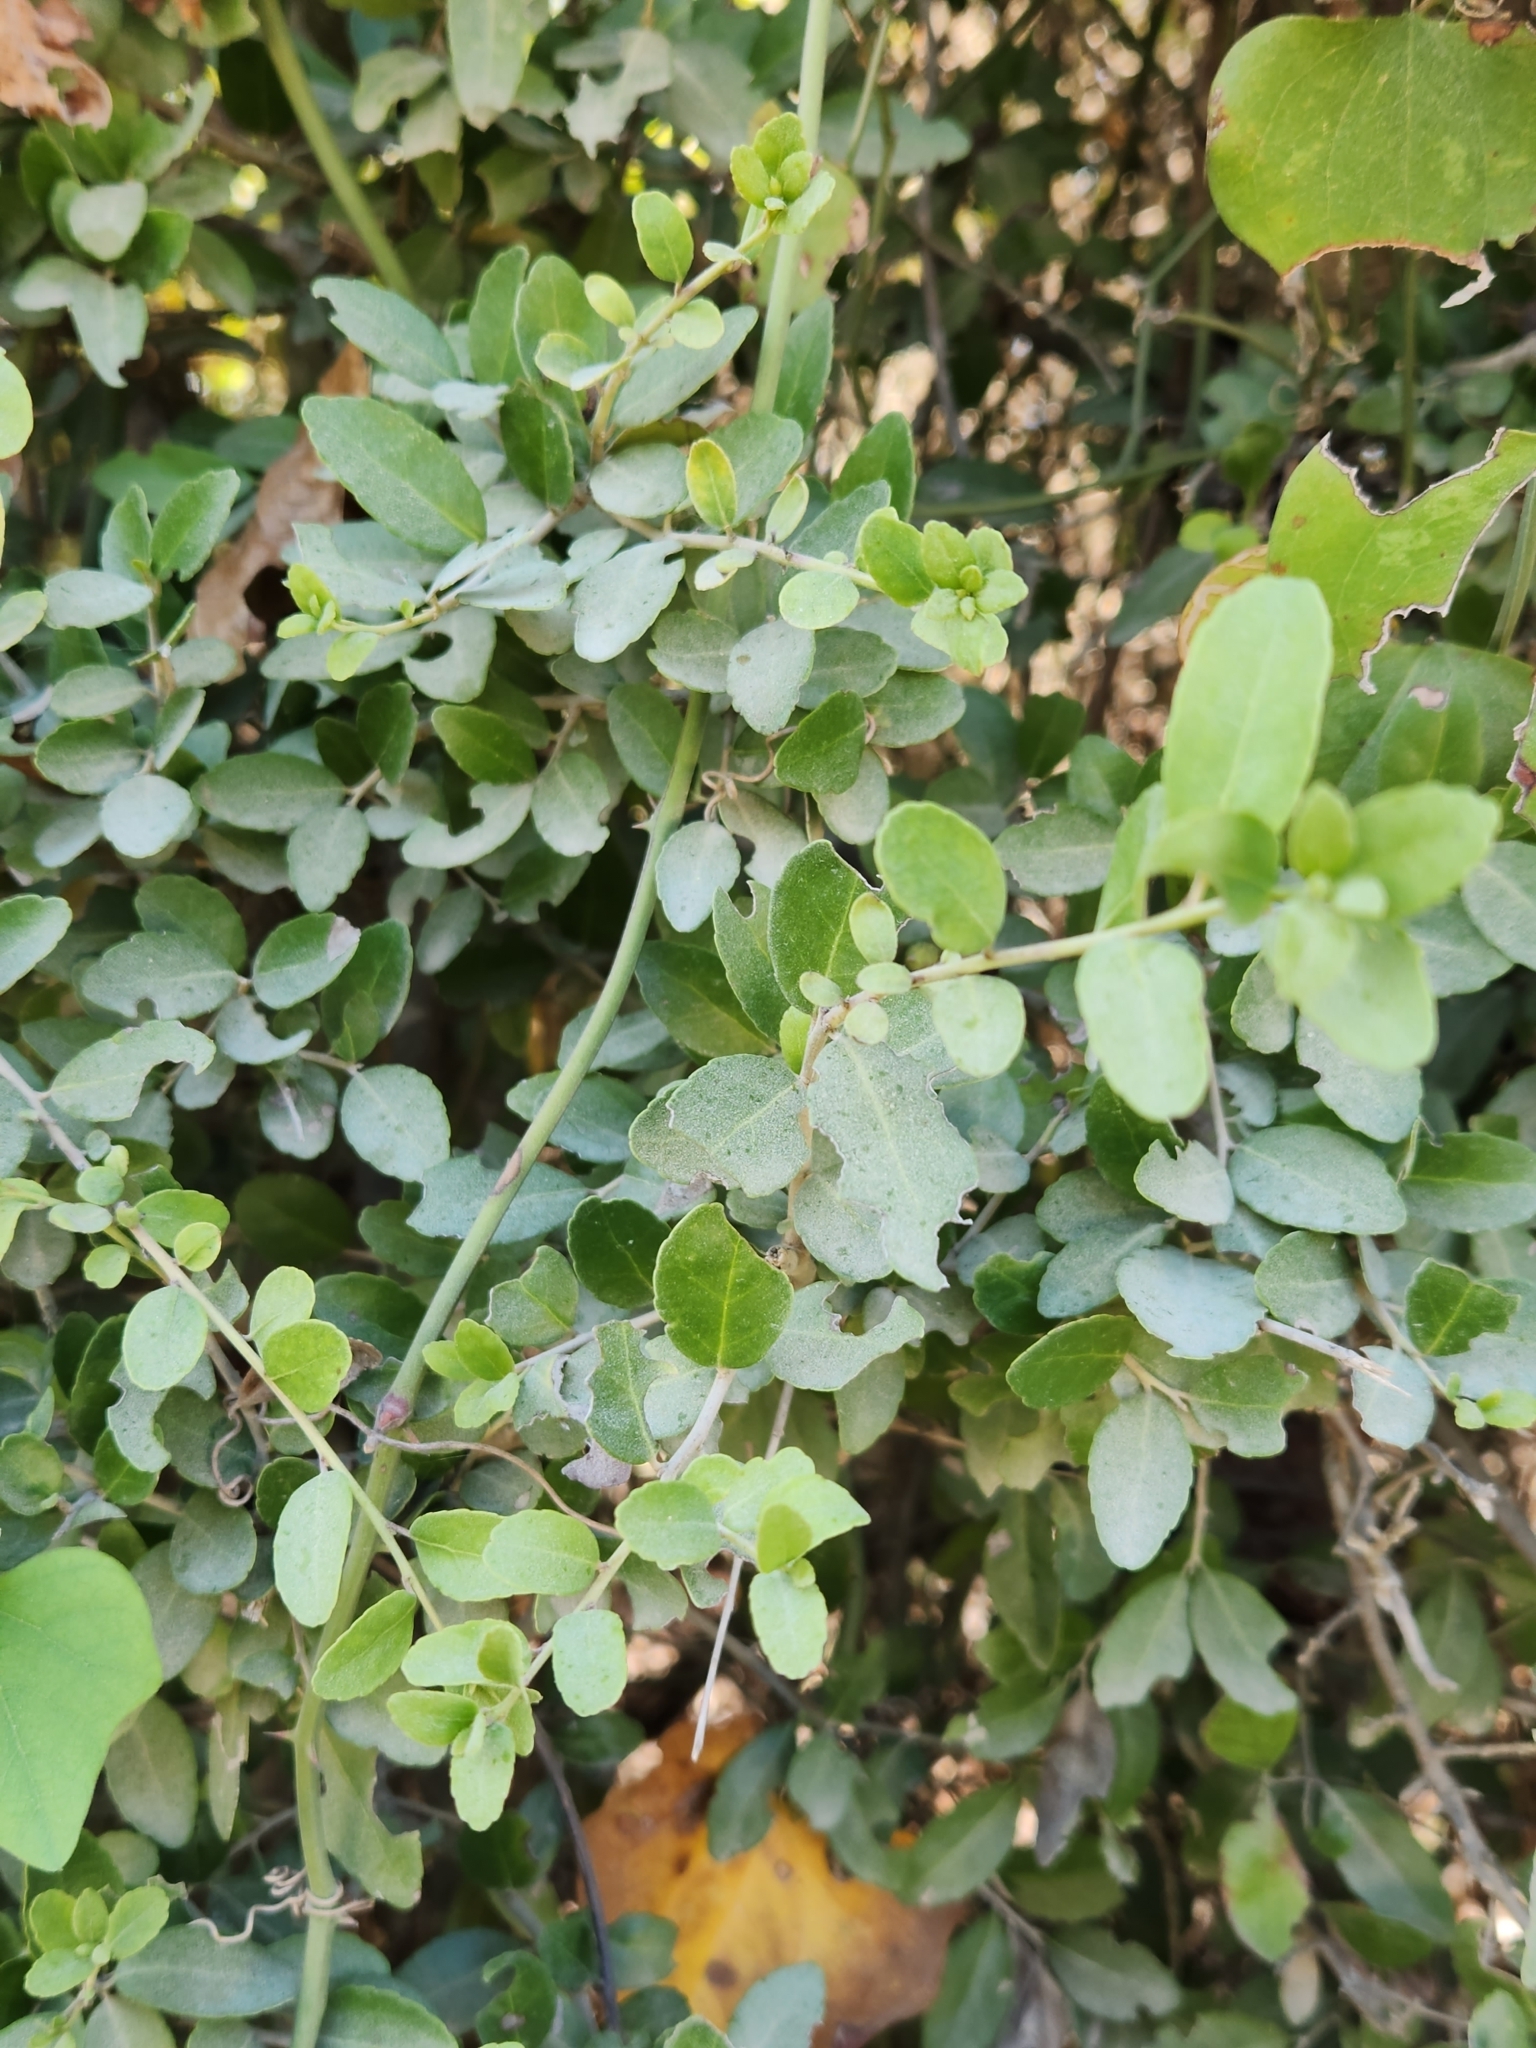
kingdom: Plantae
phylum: Tracheophyta
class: Magnoliopsida
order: Aquifoliales
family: Aquifoliaceae
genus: Ilex
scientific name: Ilex vomitoria
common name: Yaupon holly
